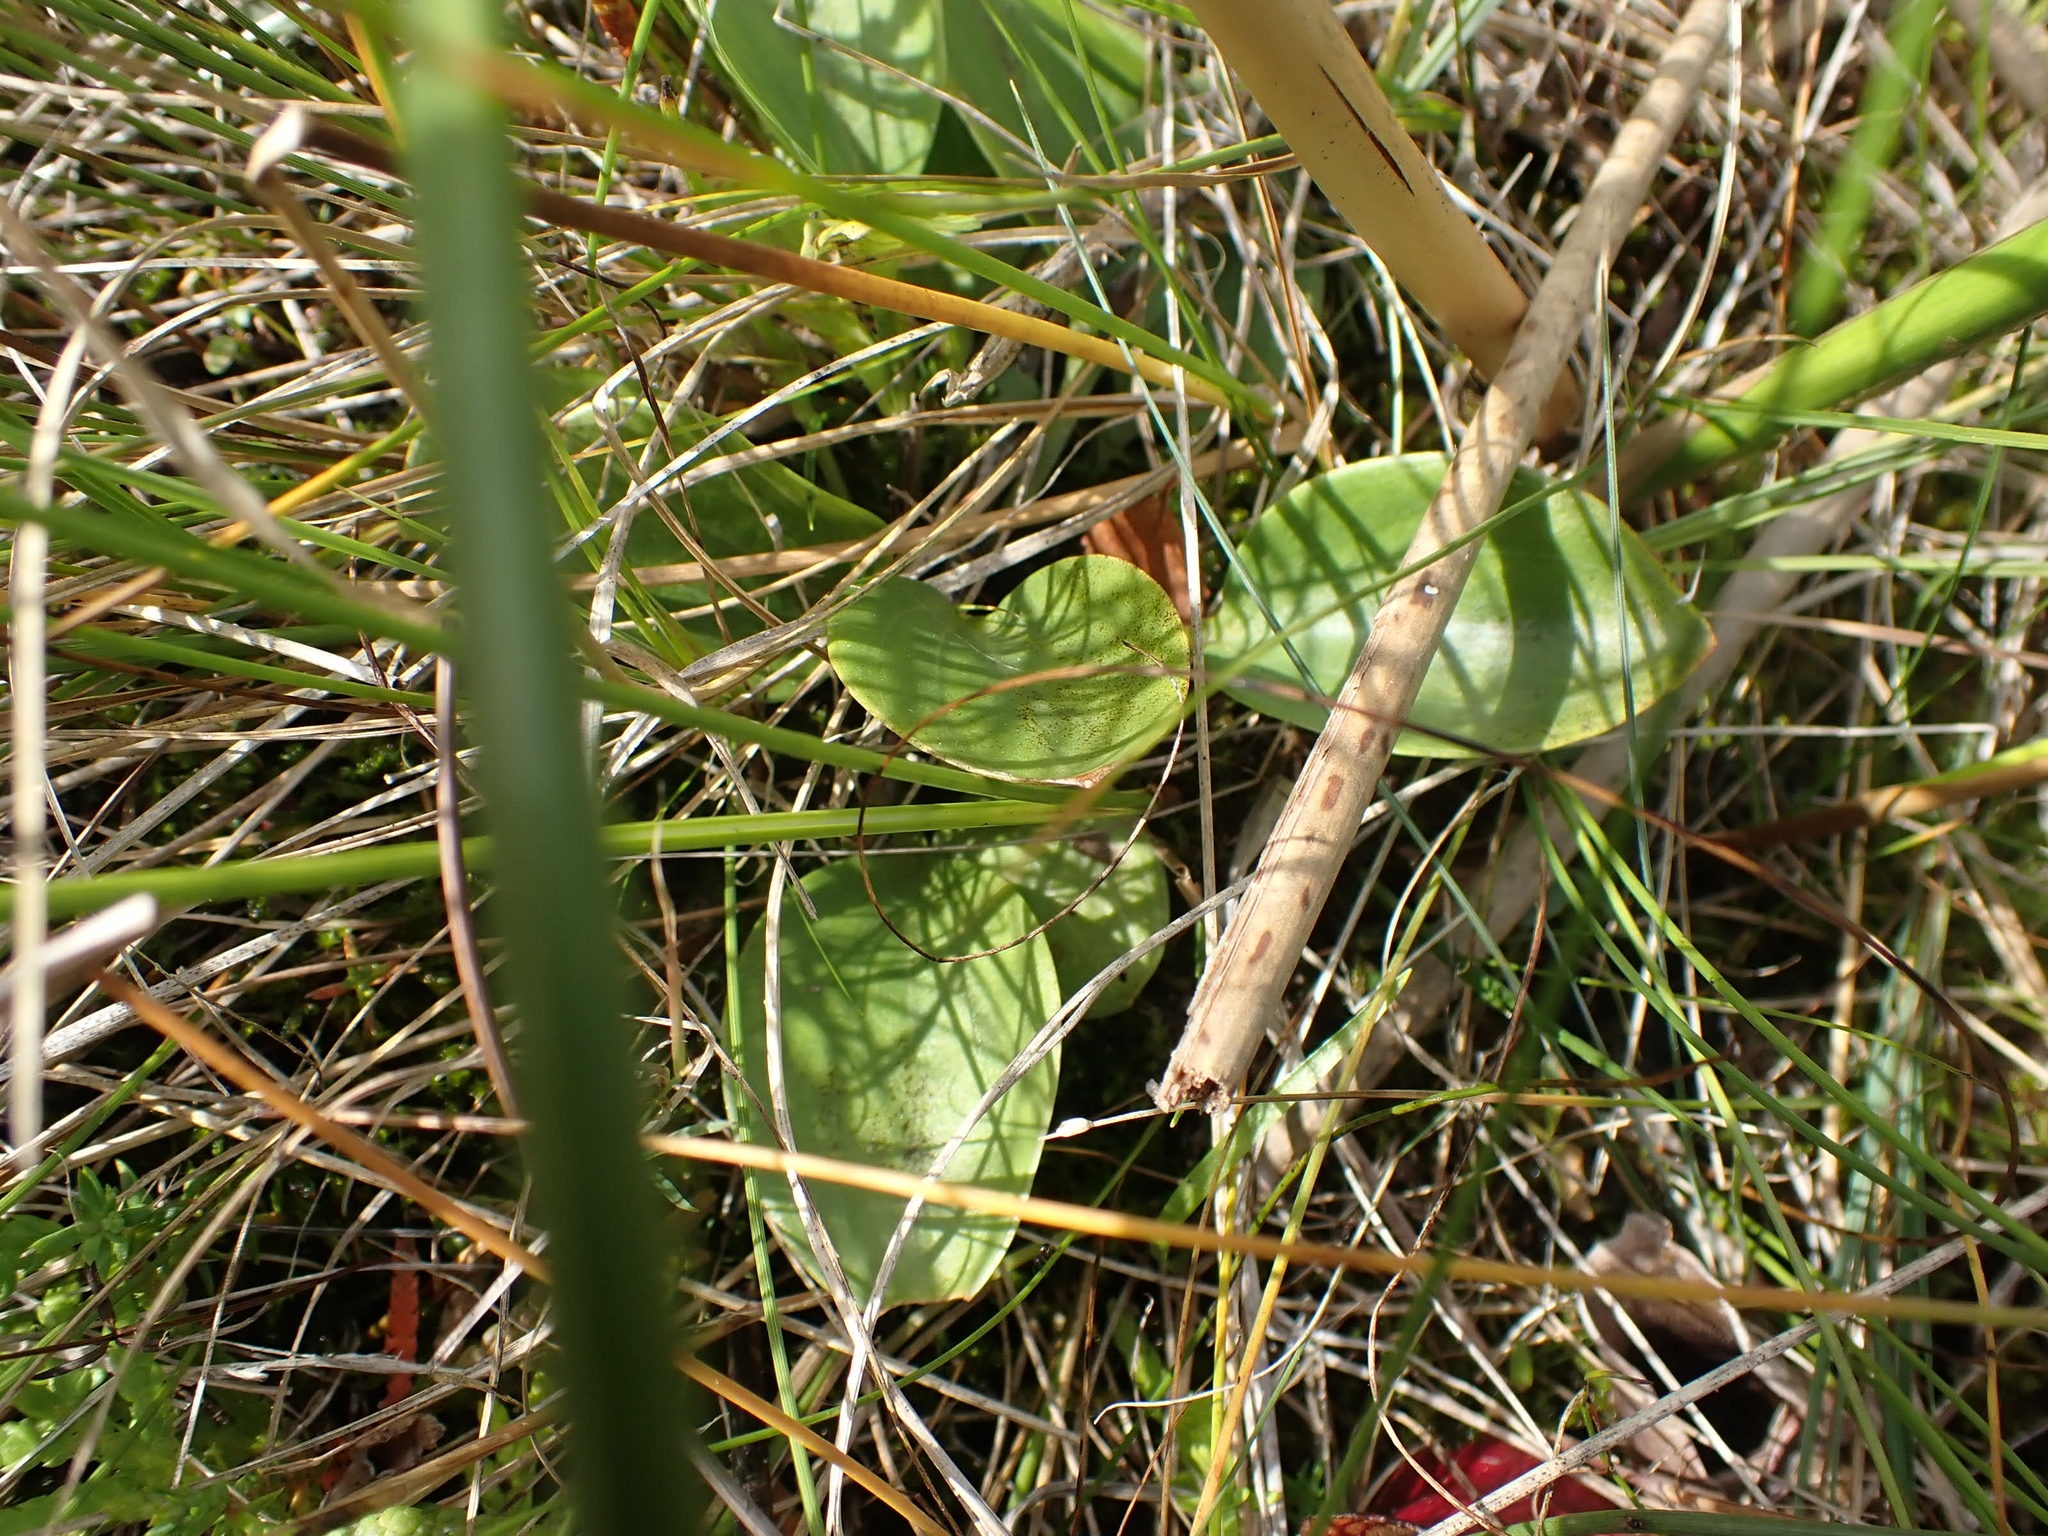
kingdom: Plantae
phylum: Tracheophyta
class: Magnoliopsida
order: Celastrales
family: Parnassiaceae
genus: Parnassia
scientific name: Parnassia glauca
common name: American grass-of-parnassus
